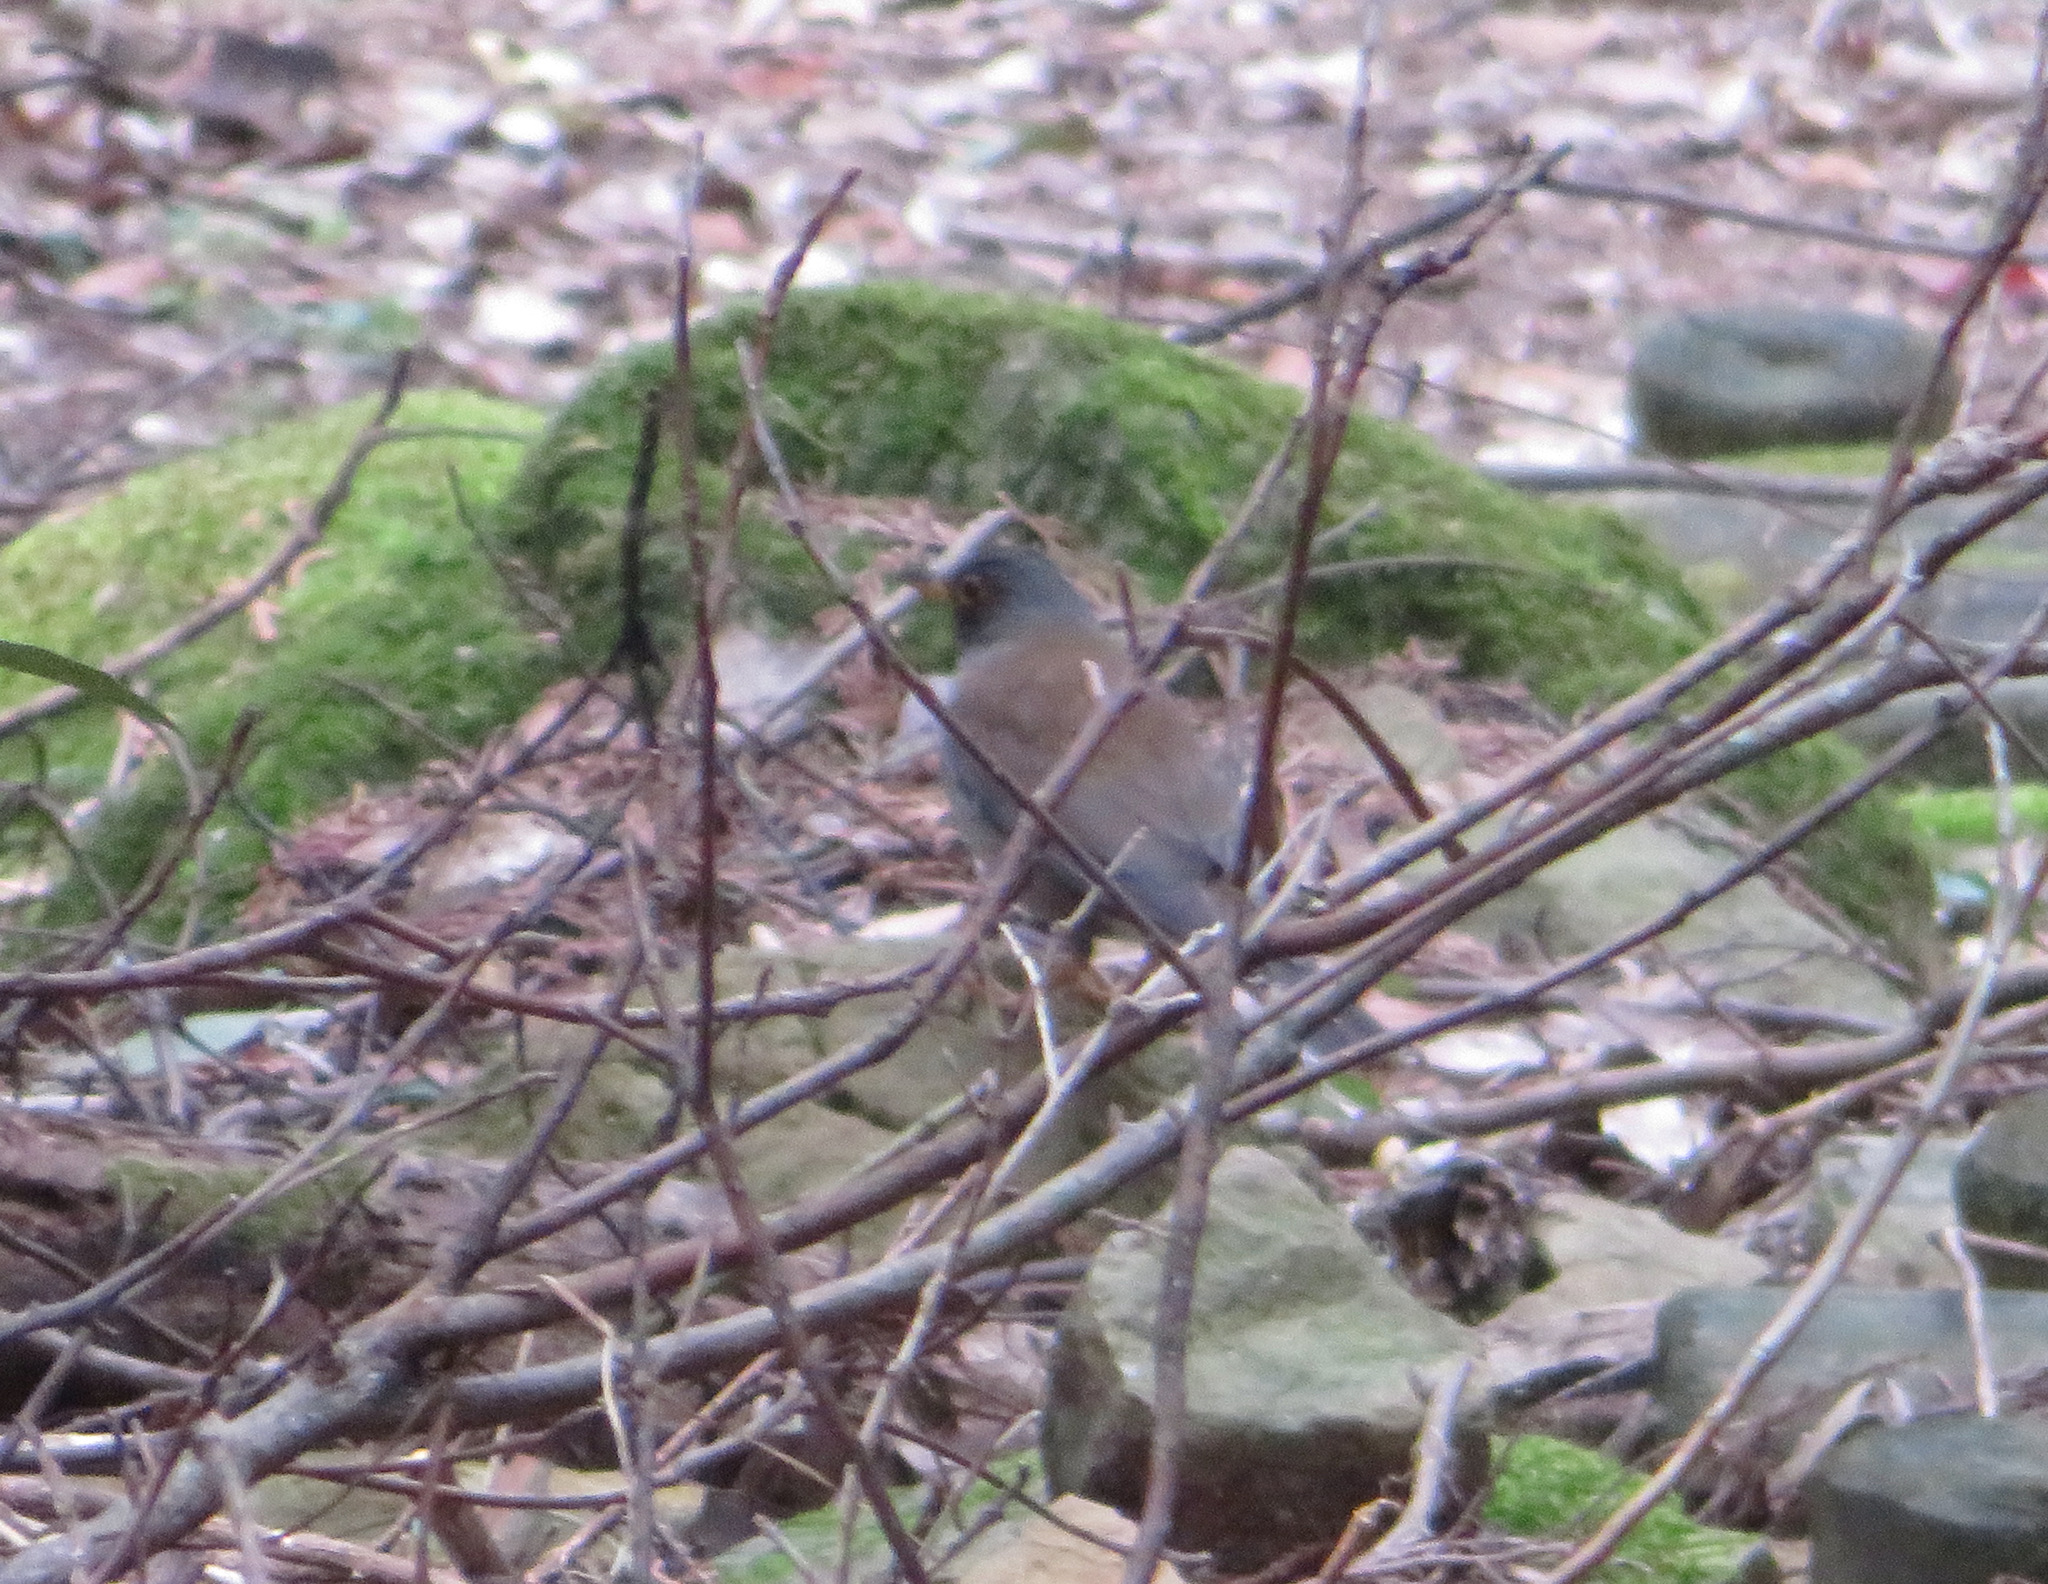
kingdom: Animalia
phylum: Chordata
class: Aves
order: Passeriformes
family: Turdidae
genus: Turdus
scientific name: Turdus pallidus
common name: Pale thrush
